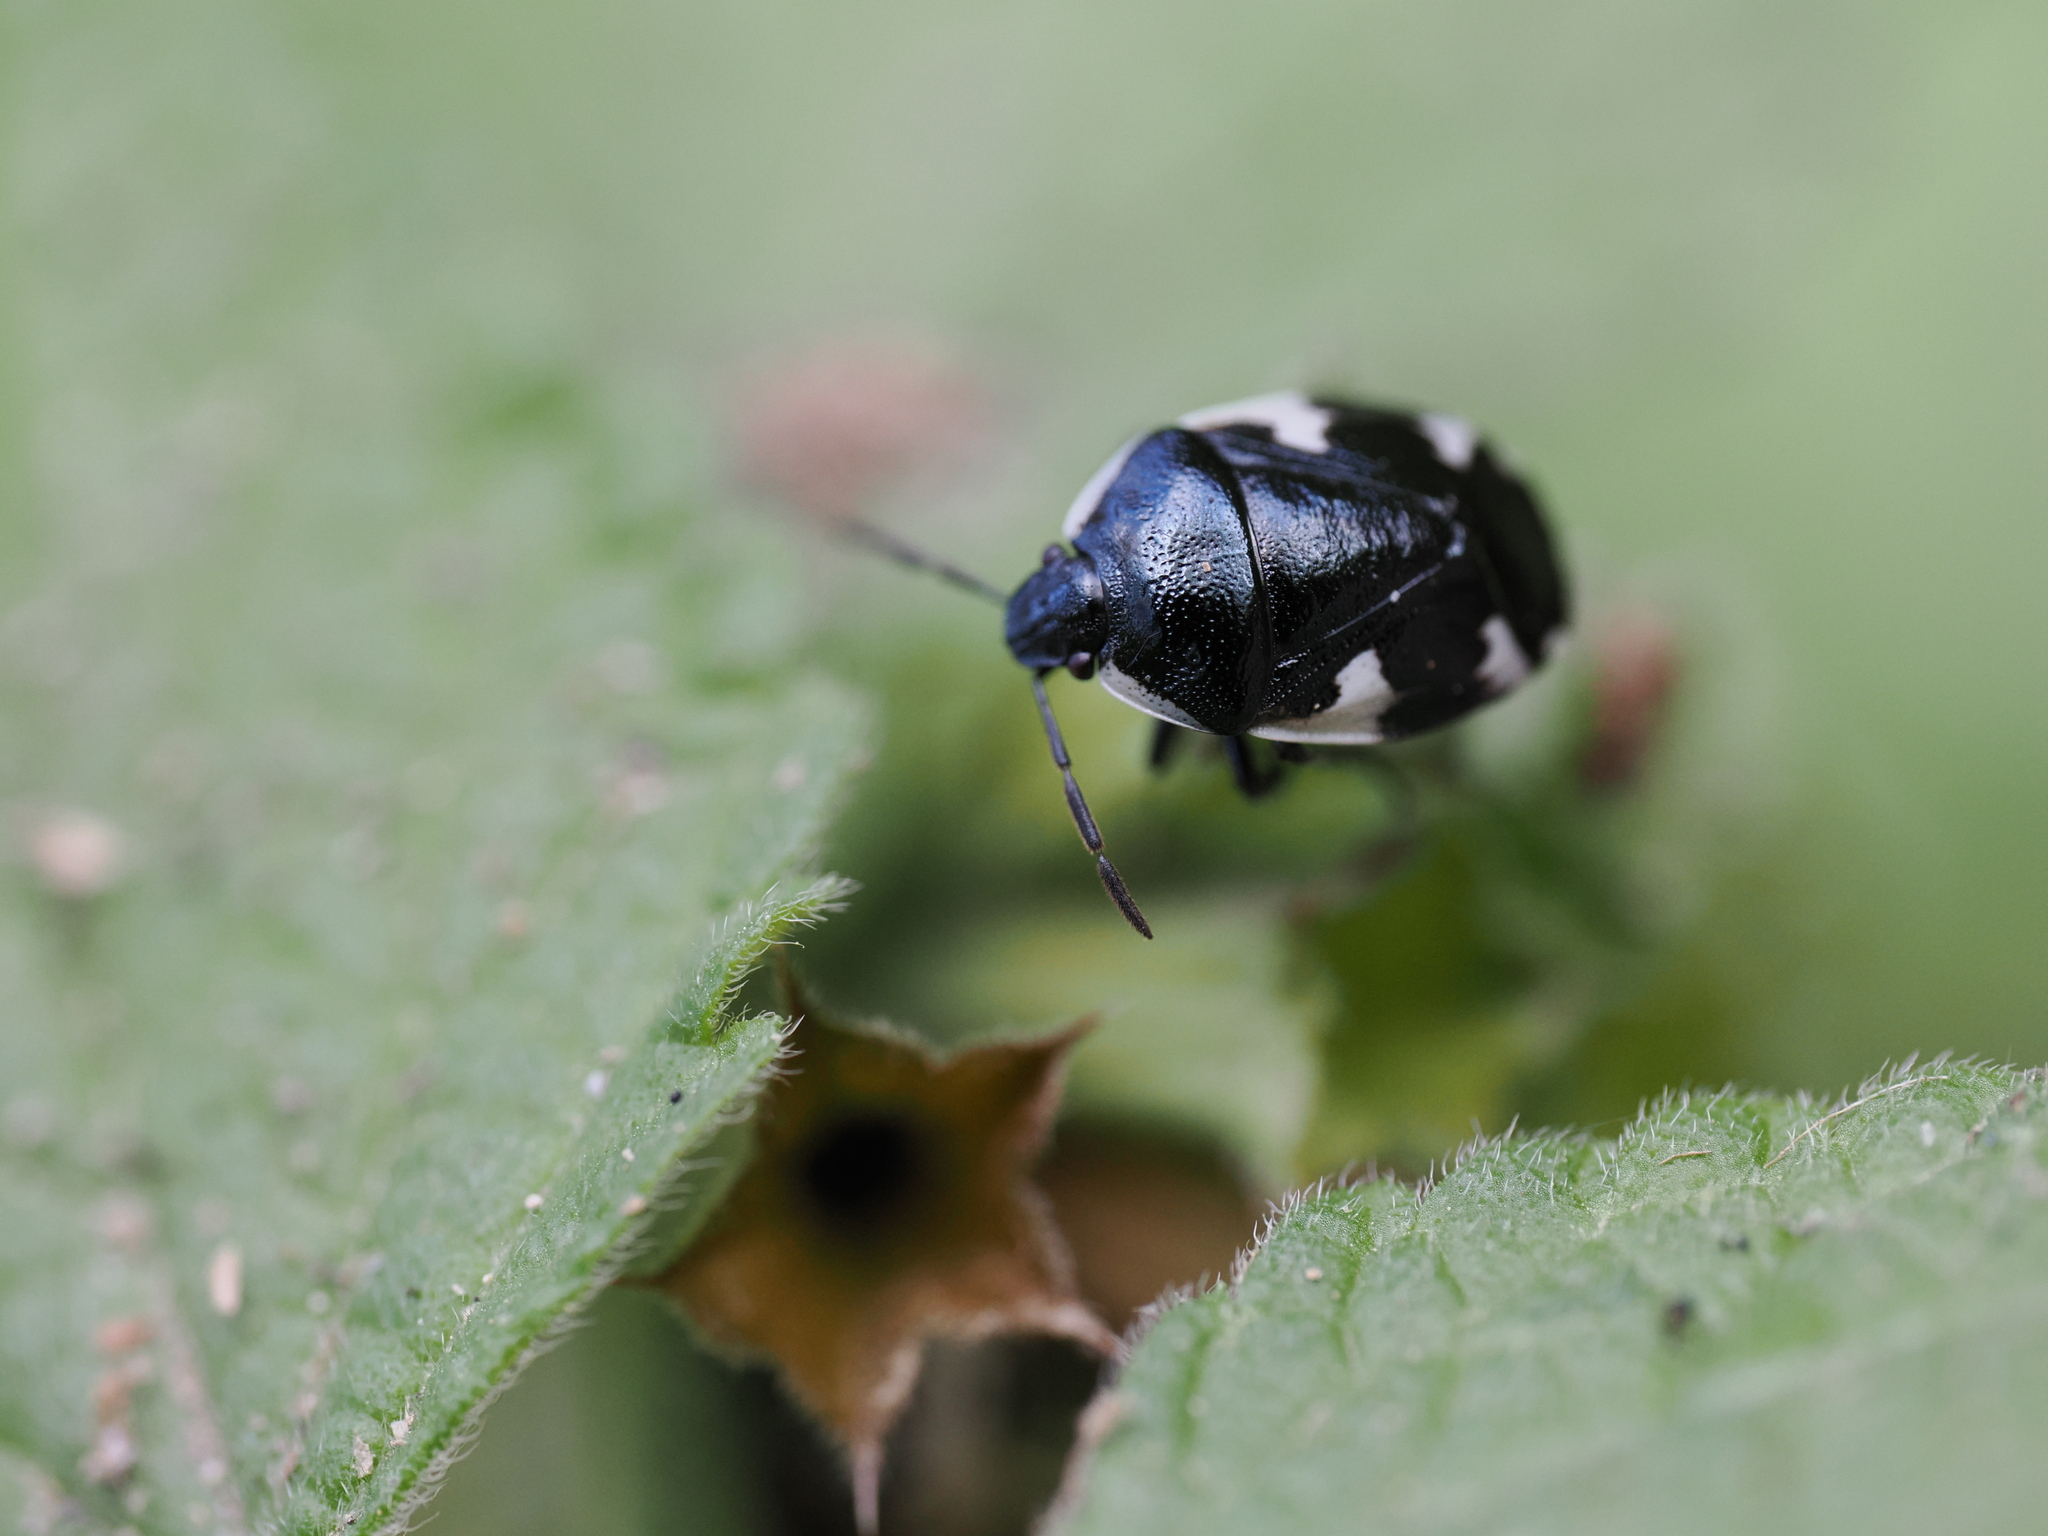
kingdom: Animalia
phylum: Arthropoda
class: Insecta
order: Hemiptera
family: Cydnidae
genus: Tritomegas
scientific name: Tritomegas sexmaculatus
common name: Rambur's pied shieldbug
